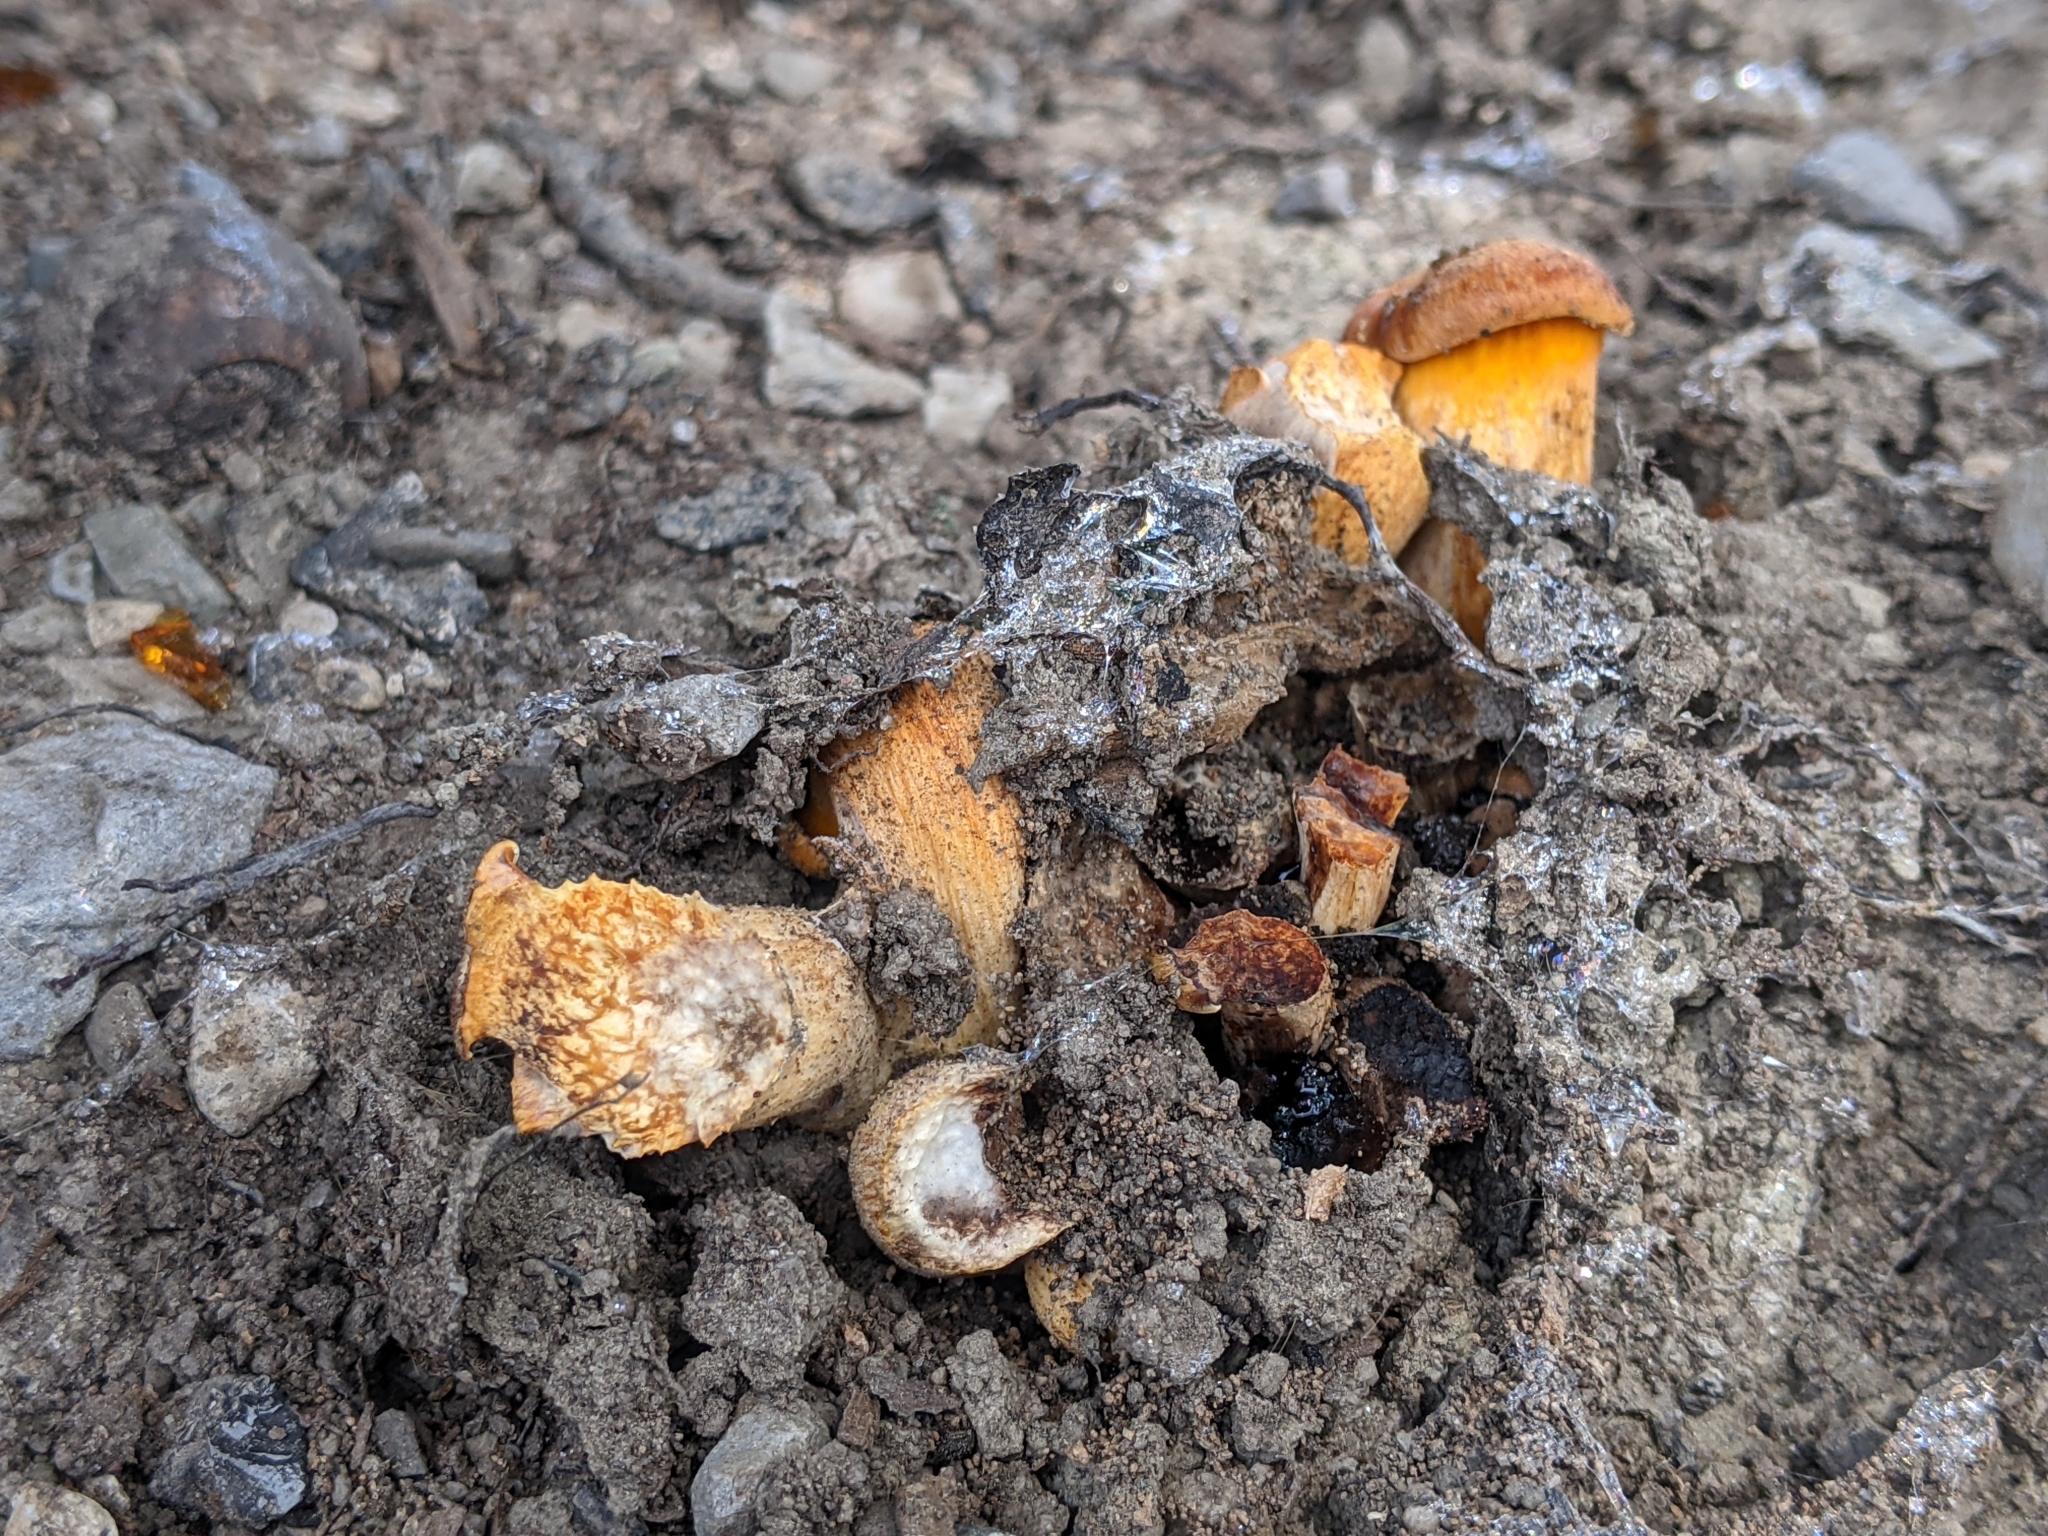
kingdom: Fungi
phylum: Basidiomycota
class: Agaricomycetes
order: Agaricales
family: Omphalotaceae
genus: Omphalotus
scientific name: Omphalotus illudens
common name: Jack o lantern
